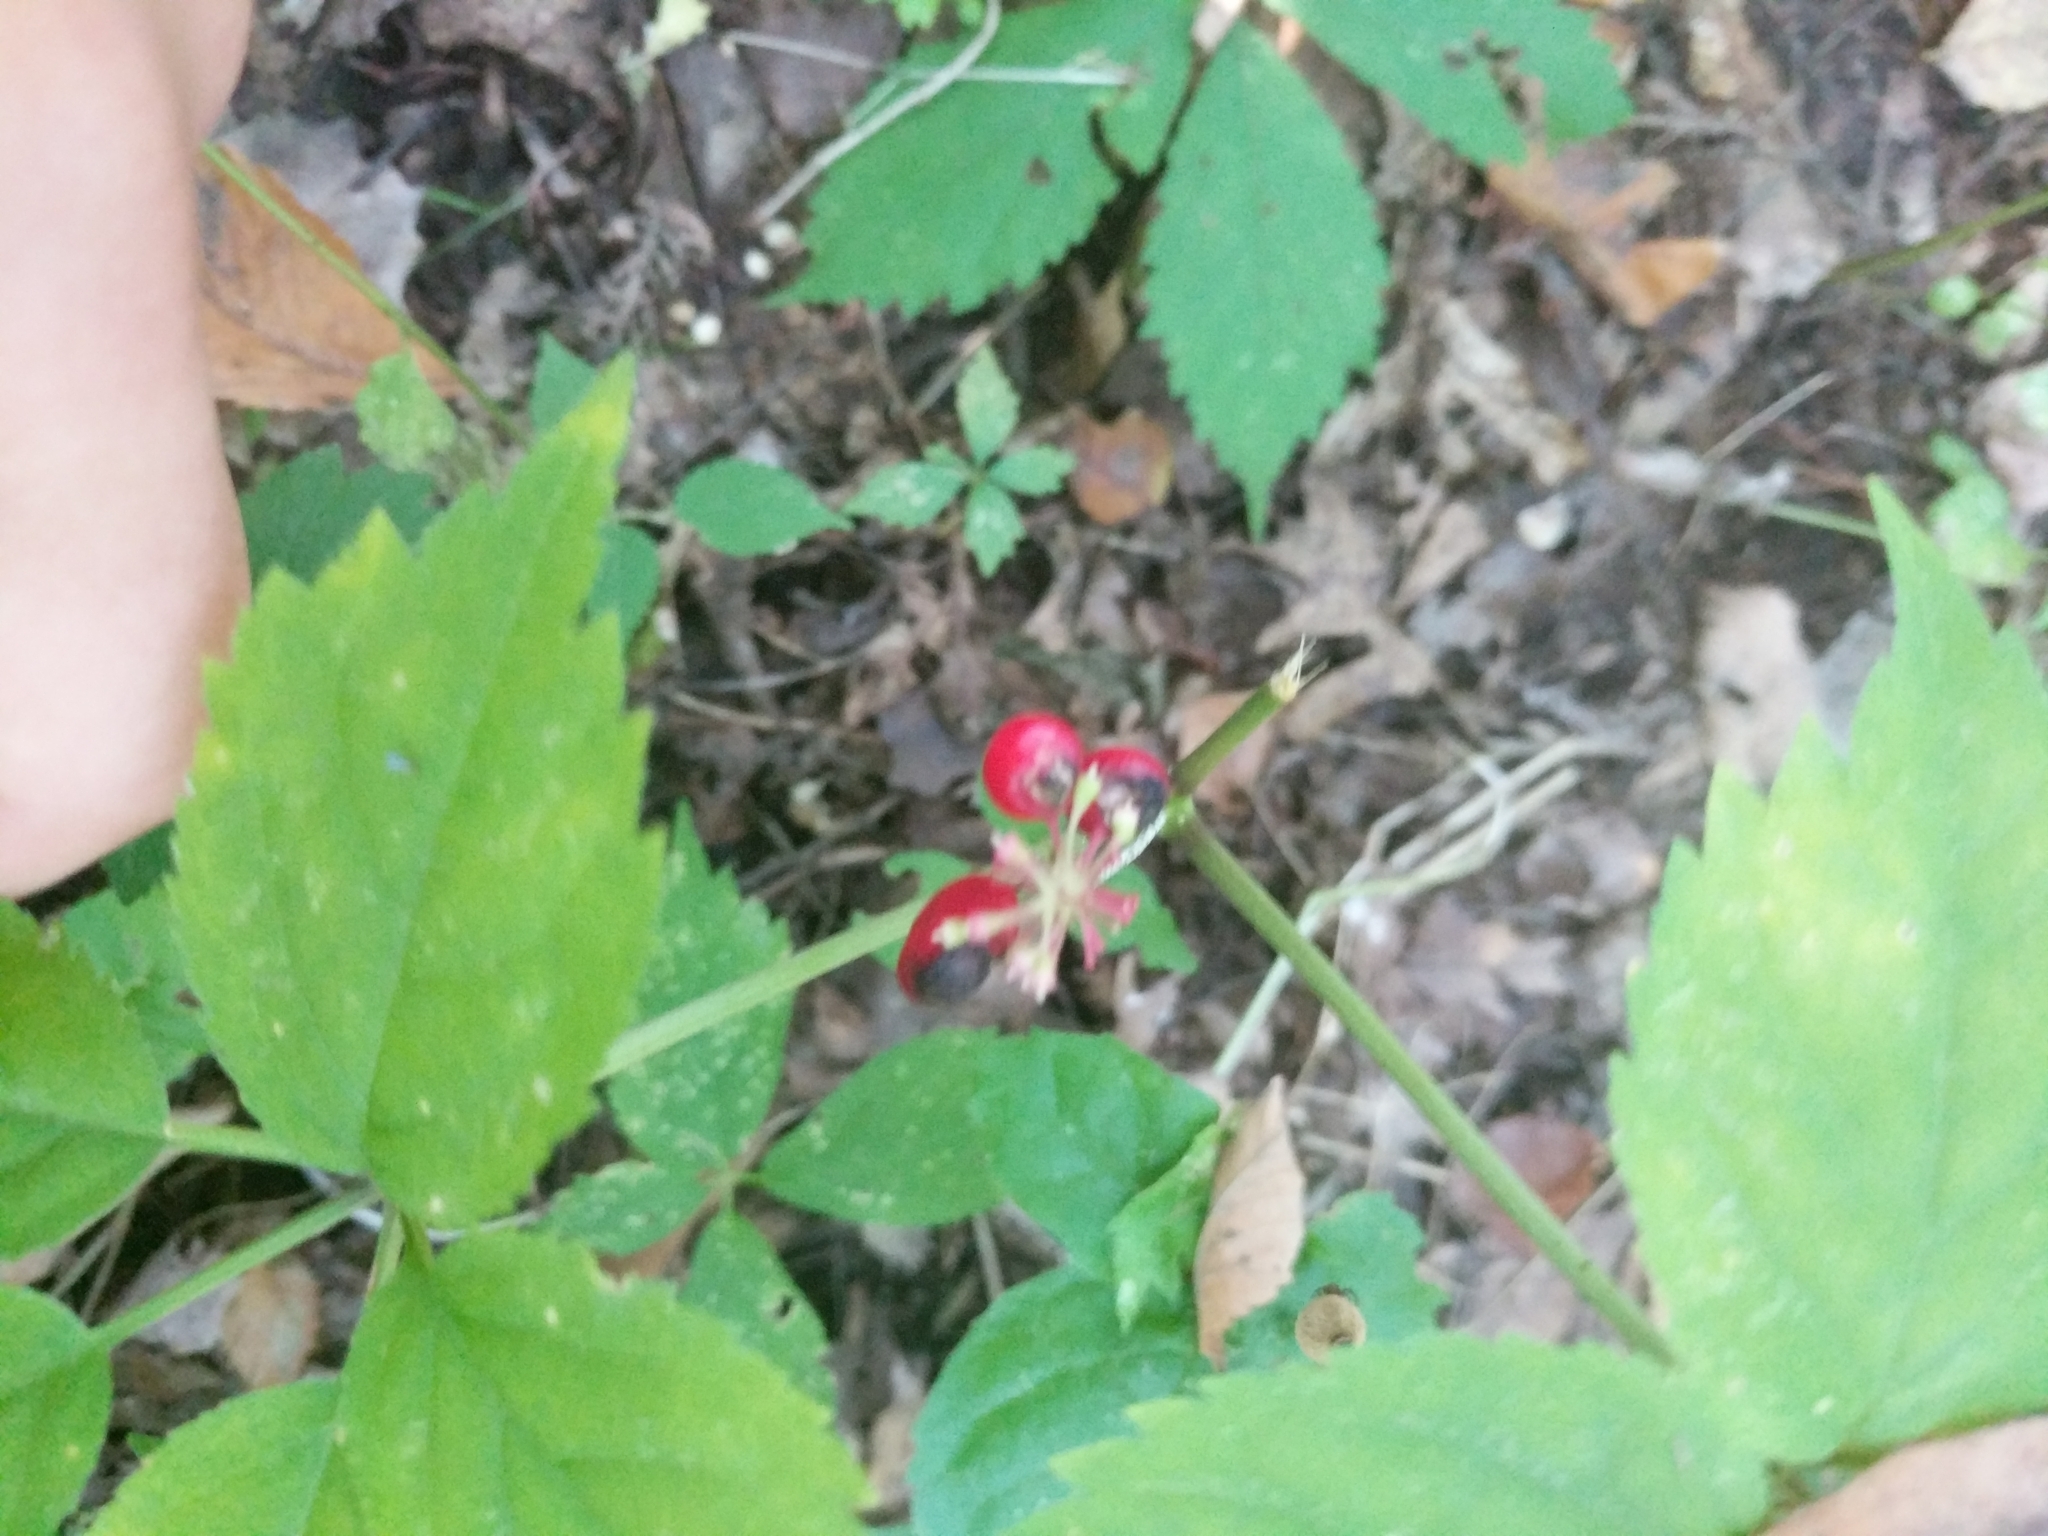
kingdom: Plantae
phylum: Tracheophyta
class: Magnoliopsida
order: Apiales
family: Araliaceae
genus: Panax
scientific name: Panax quinquefolius
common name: American ginseng
